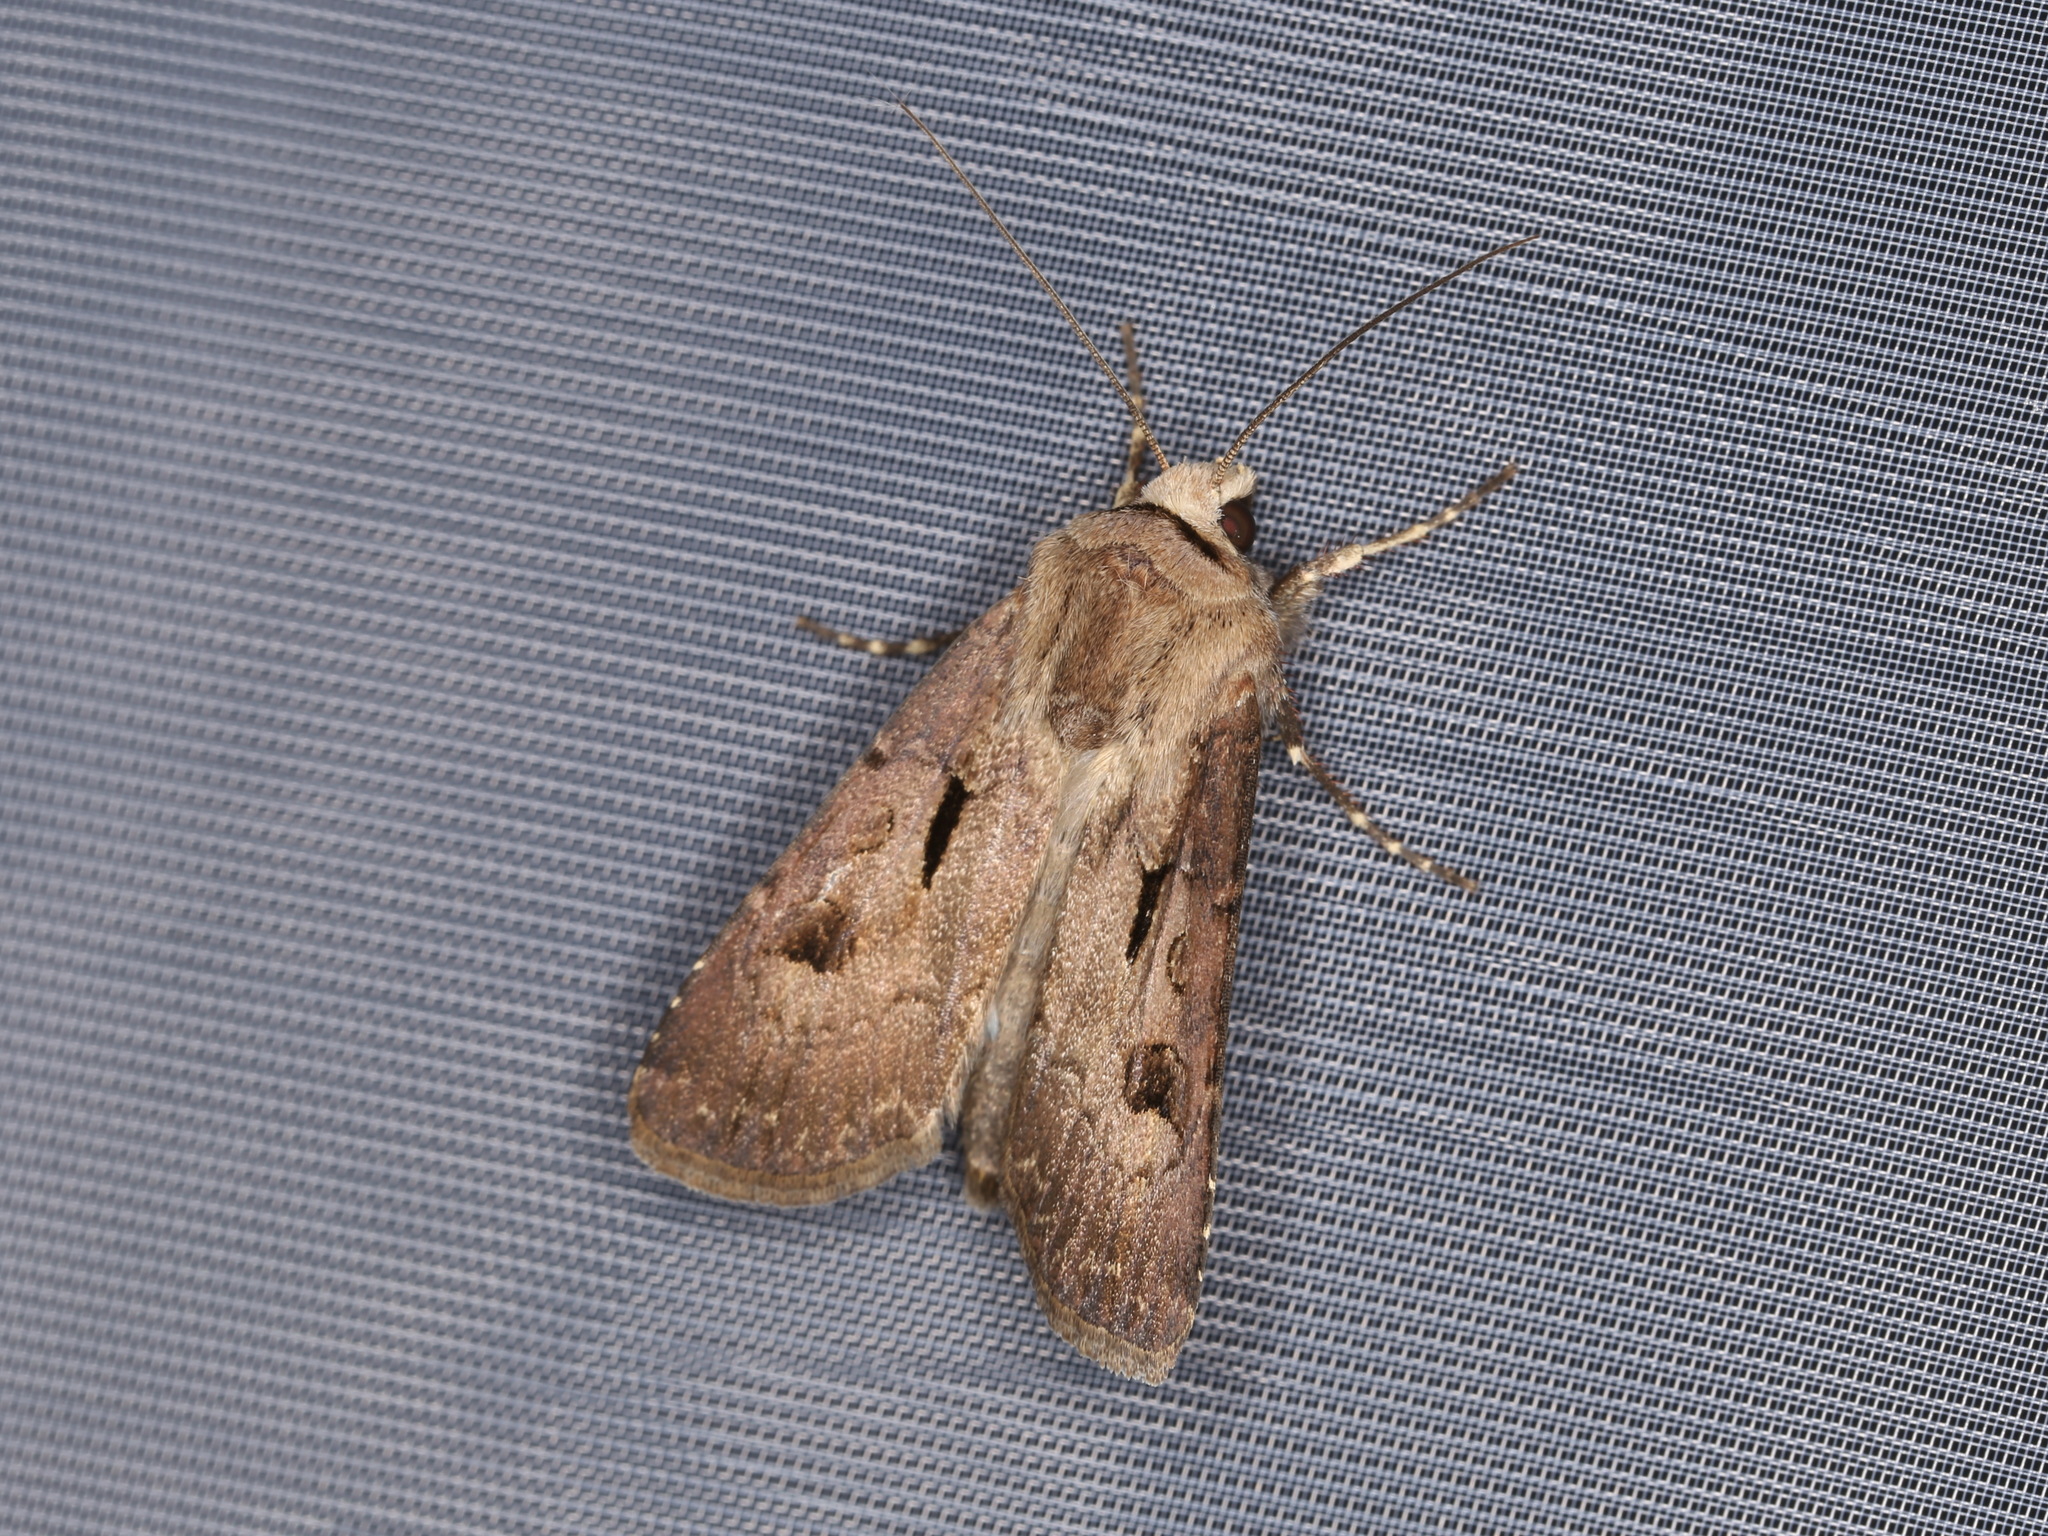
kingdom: Animalia
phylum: Arthropoda
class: Insecta
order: Lepidoptera
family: Noctuidae
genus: Agrotis
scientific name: Agrotis exclamationis
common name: Heart and dart
